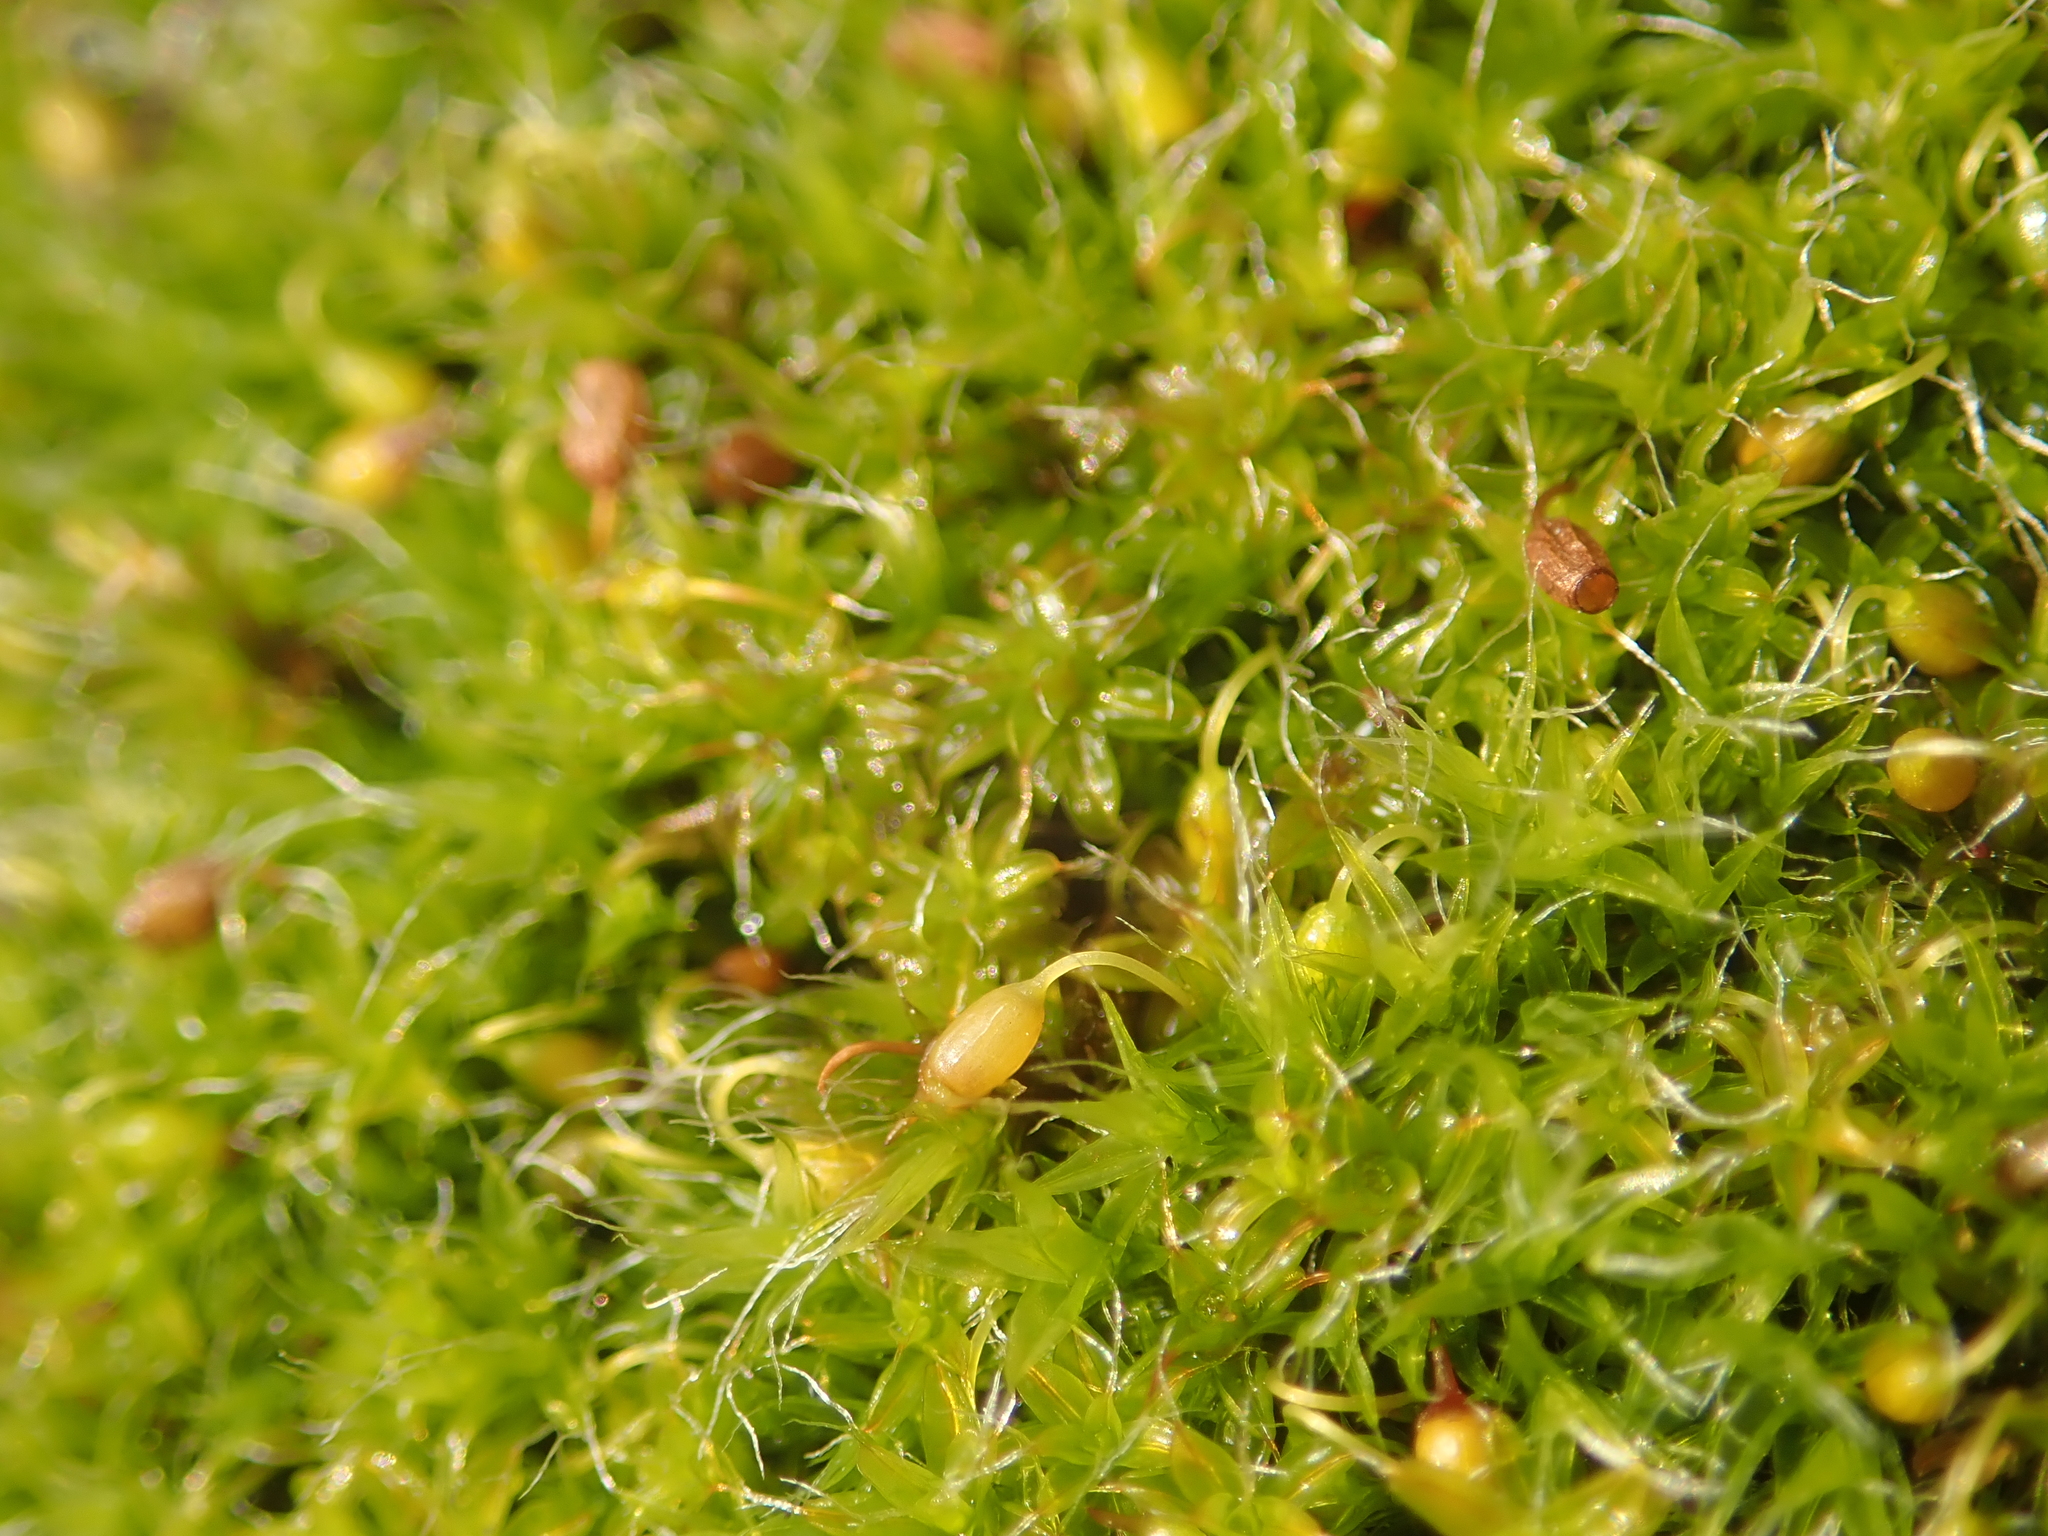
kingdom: Plantae
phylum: Bryophyta
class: Bryopsida
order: Grimmiales
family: Grimmiaceae
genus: Grimmia
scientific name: Grimmia pulvinata
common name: Grey-cushioned grimmia
